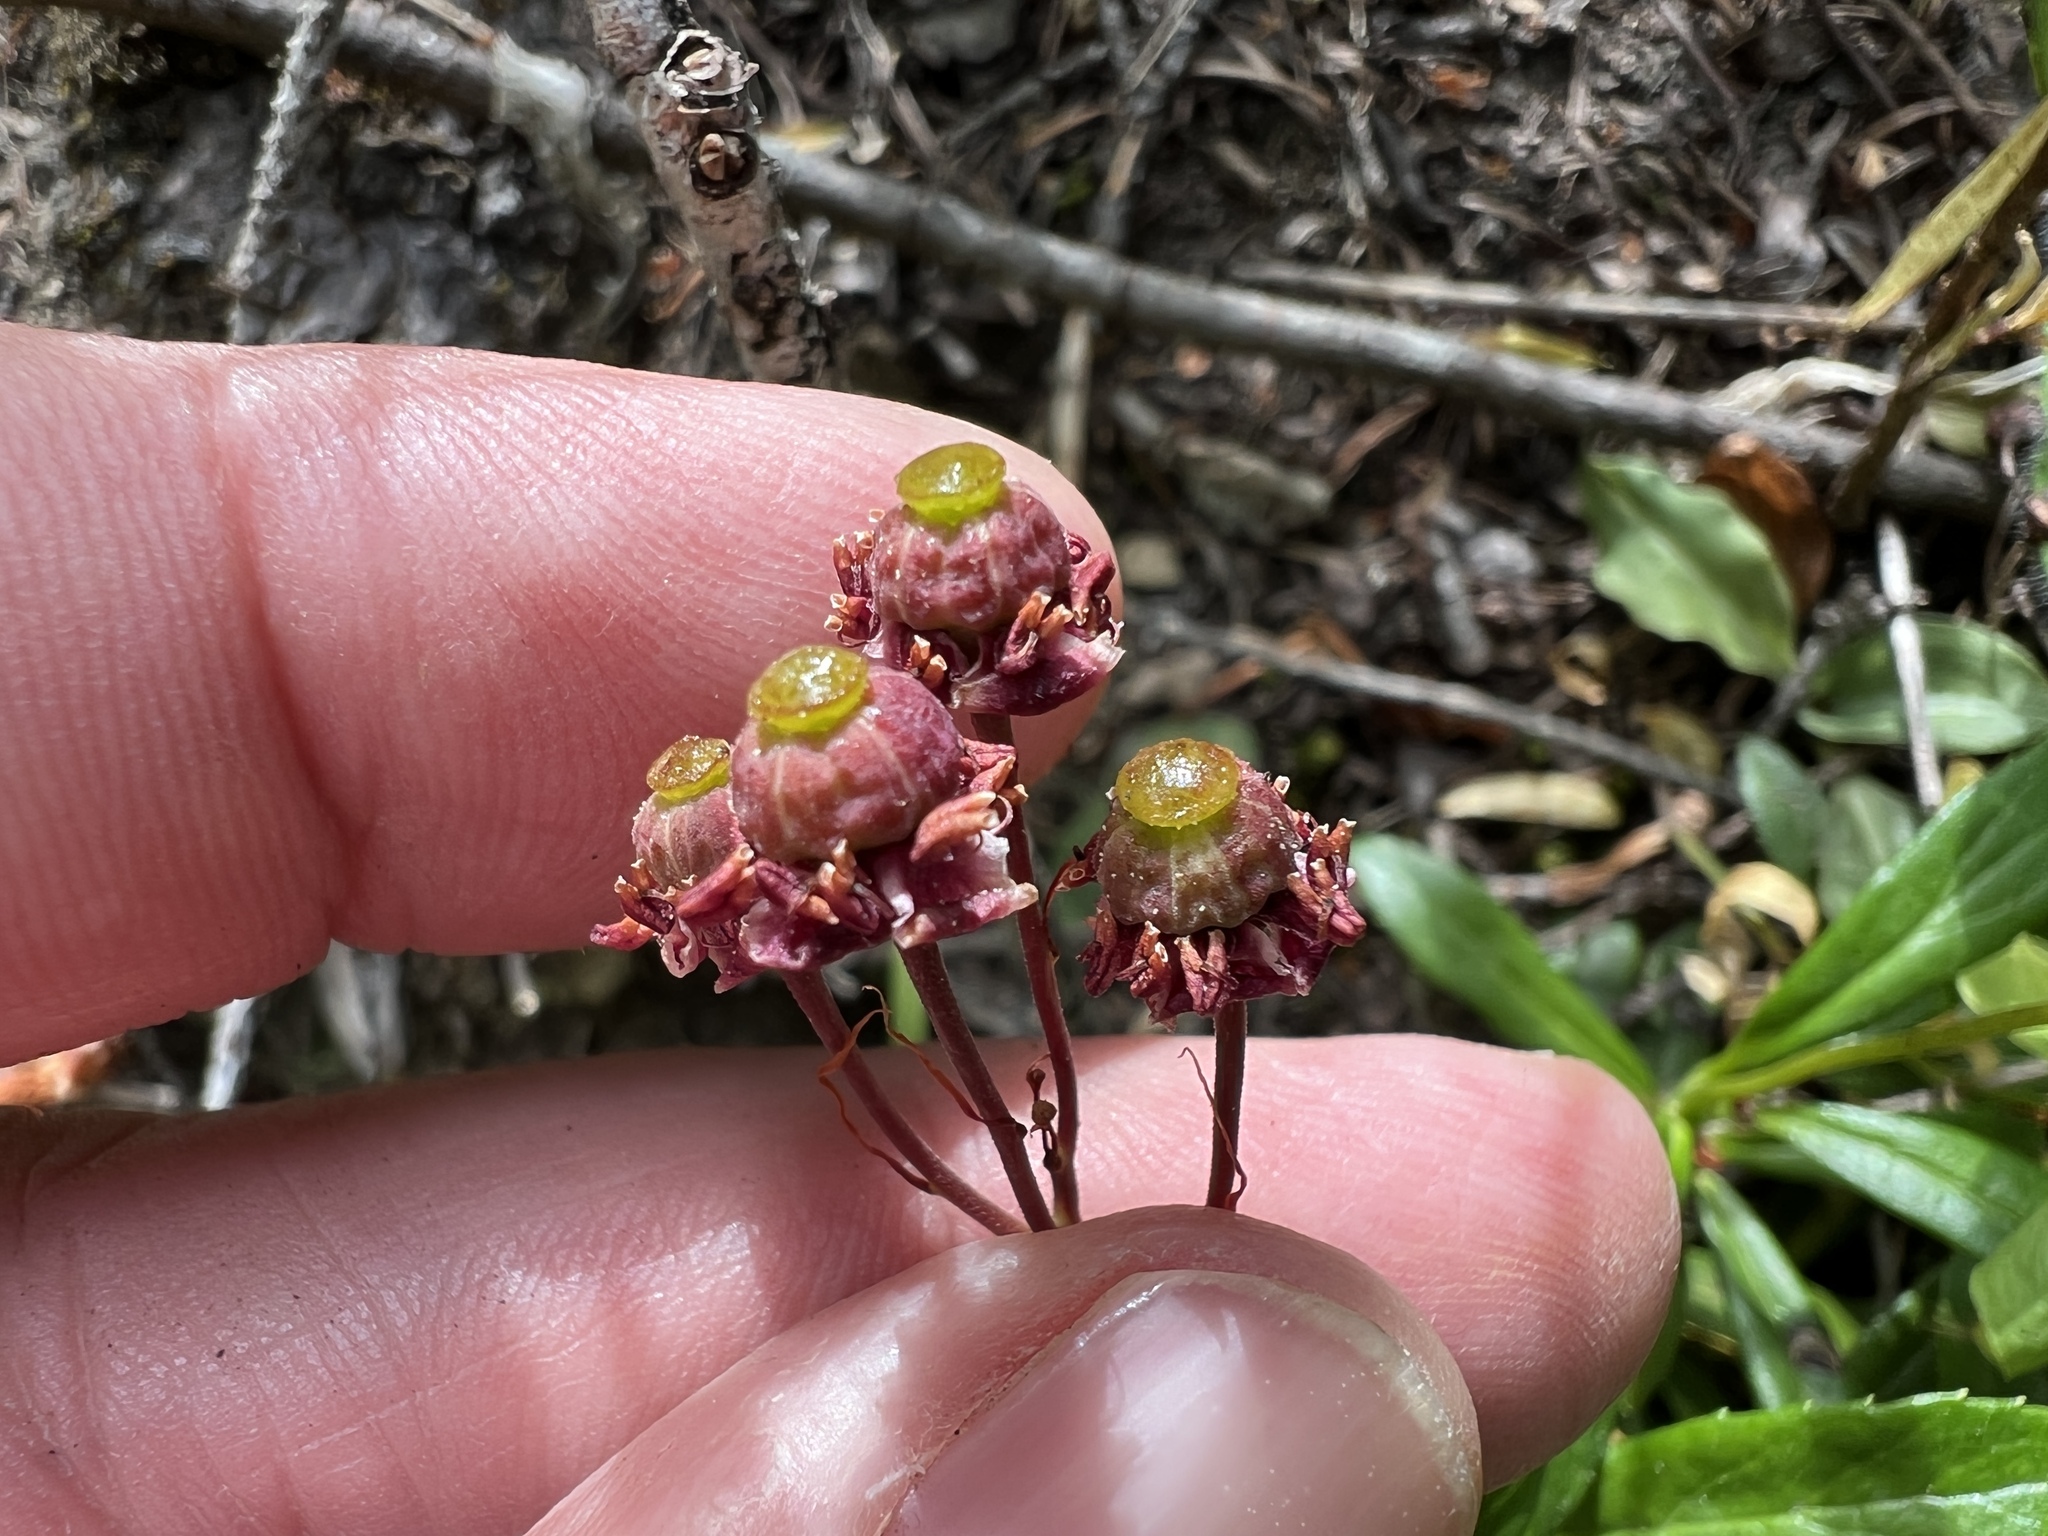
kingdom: Plantae
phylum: Tracheophyta
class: Magnoliopsida
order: Ericales
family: Ericaceae
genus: Chimaphila
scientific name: Chimaphila umbellata
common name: Pipsissewa
